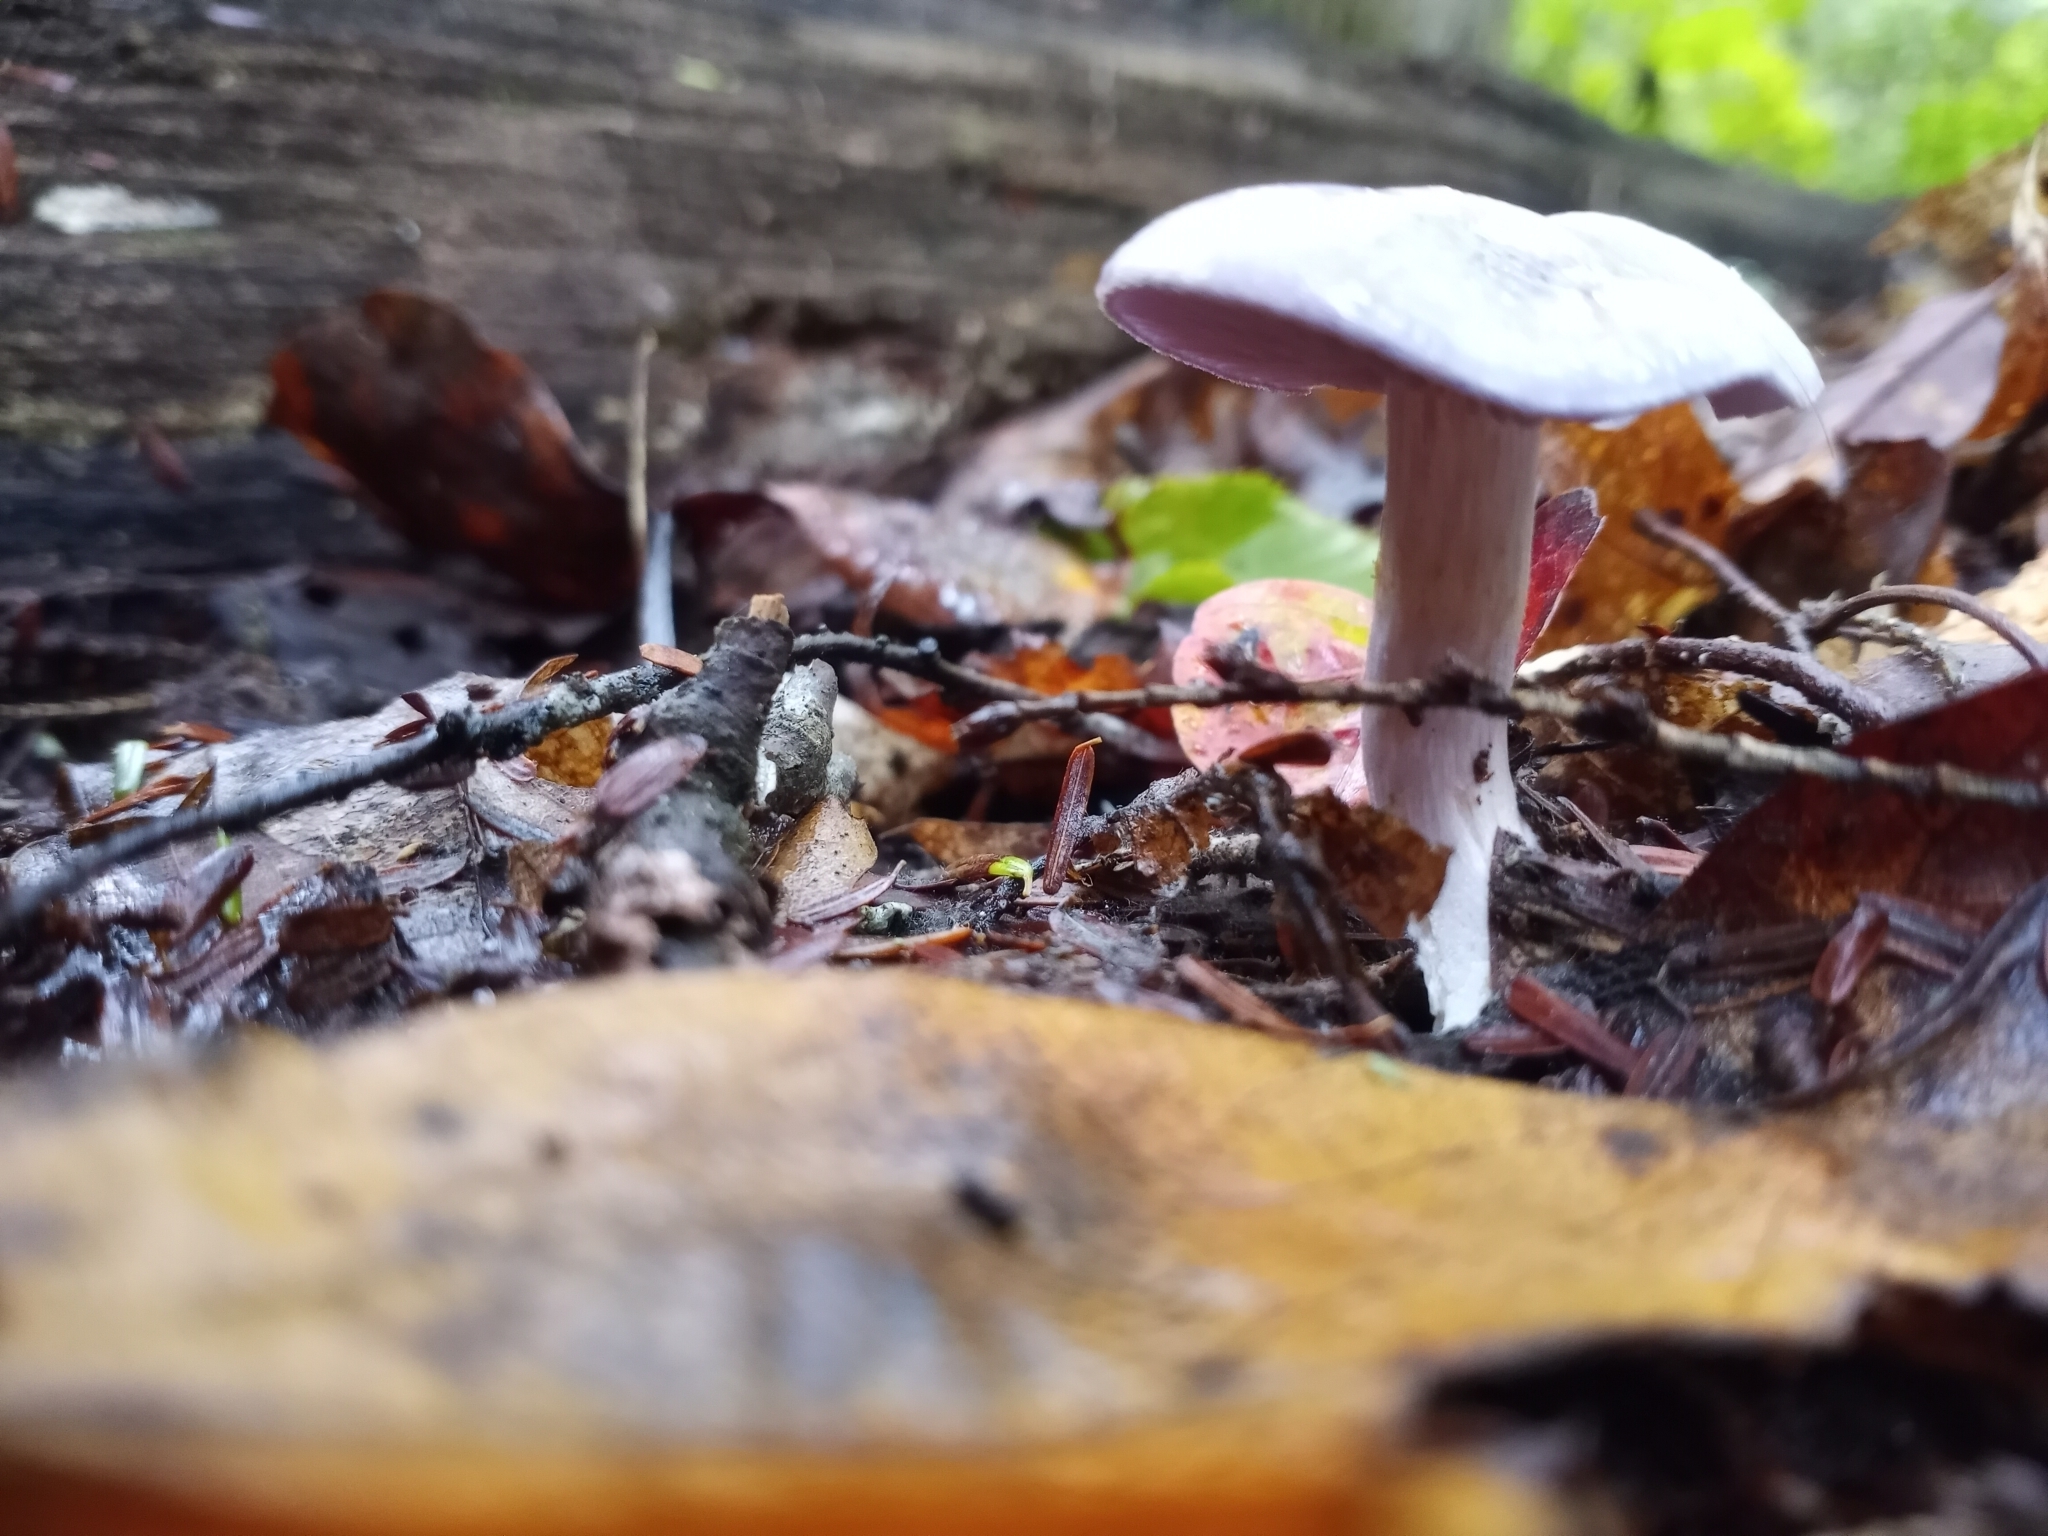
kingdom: Fungi
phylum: Basidiomycota
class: Agaricomycetes
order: Agaricales
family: Cortinariaceae
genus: Cortinarius
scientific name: Cortinarius iodes
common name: Viscid violet cort
